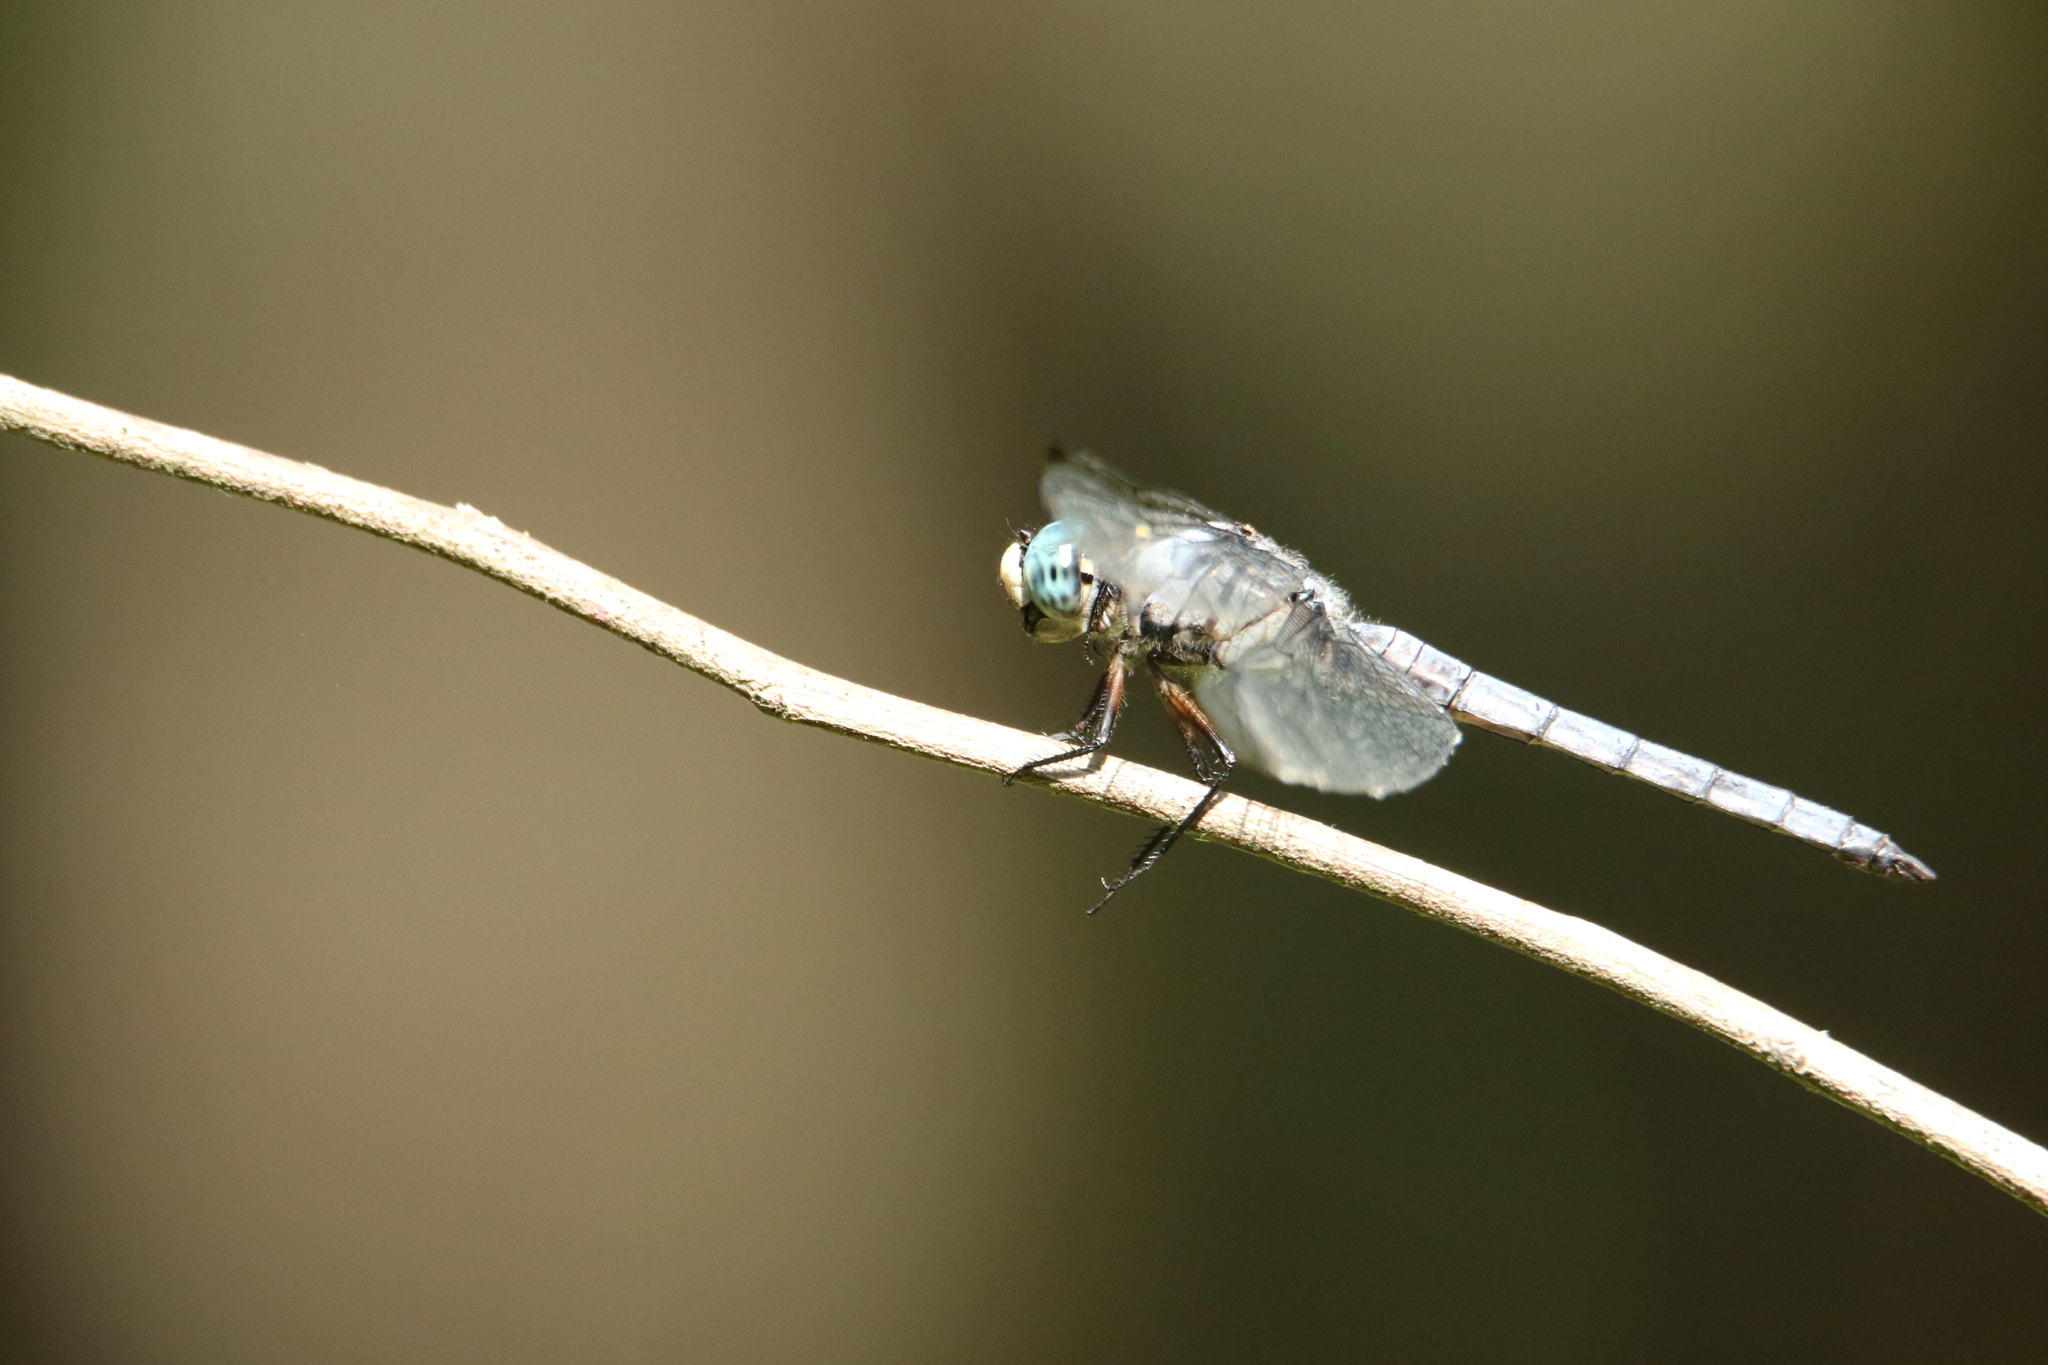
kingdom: Animalia
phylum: Arthropoda
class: Insecta
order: Odonata
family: Libellulidae
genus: Libellula
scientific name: Libellula vibrans
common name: Great blue skimmer
